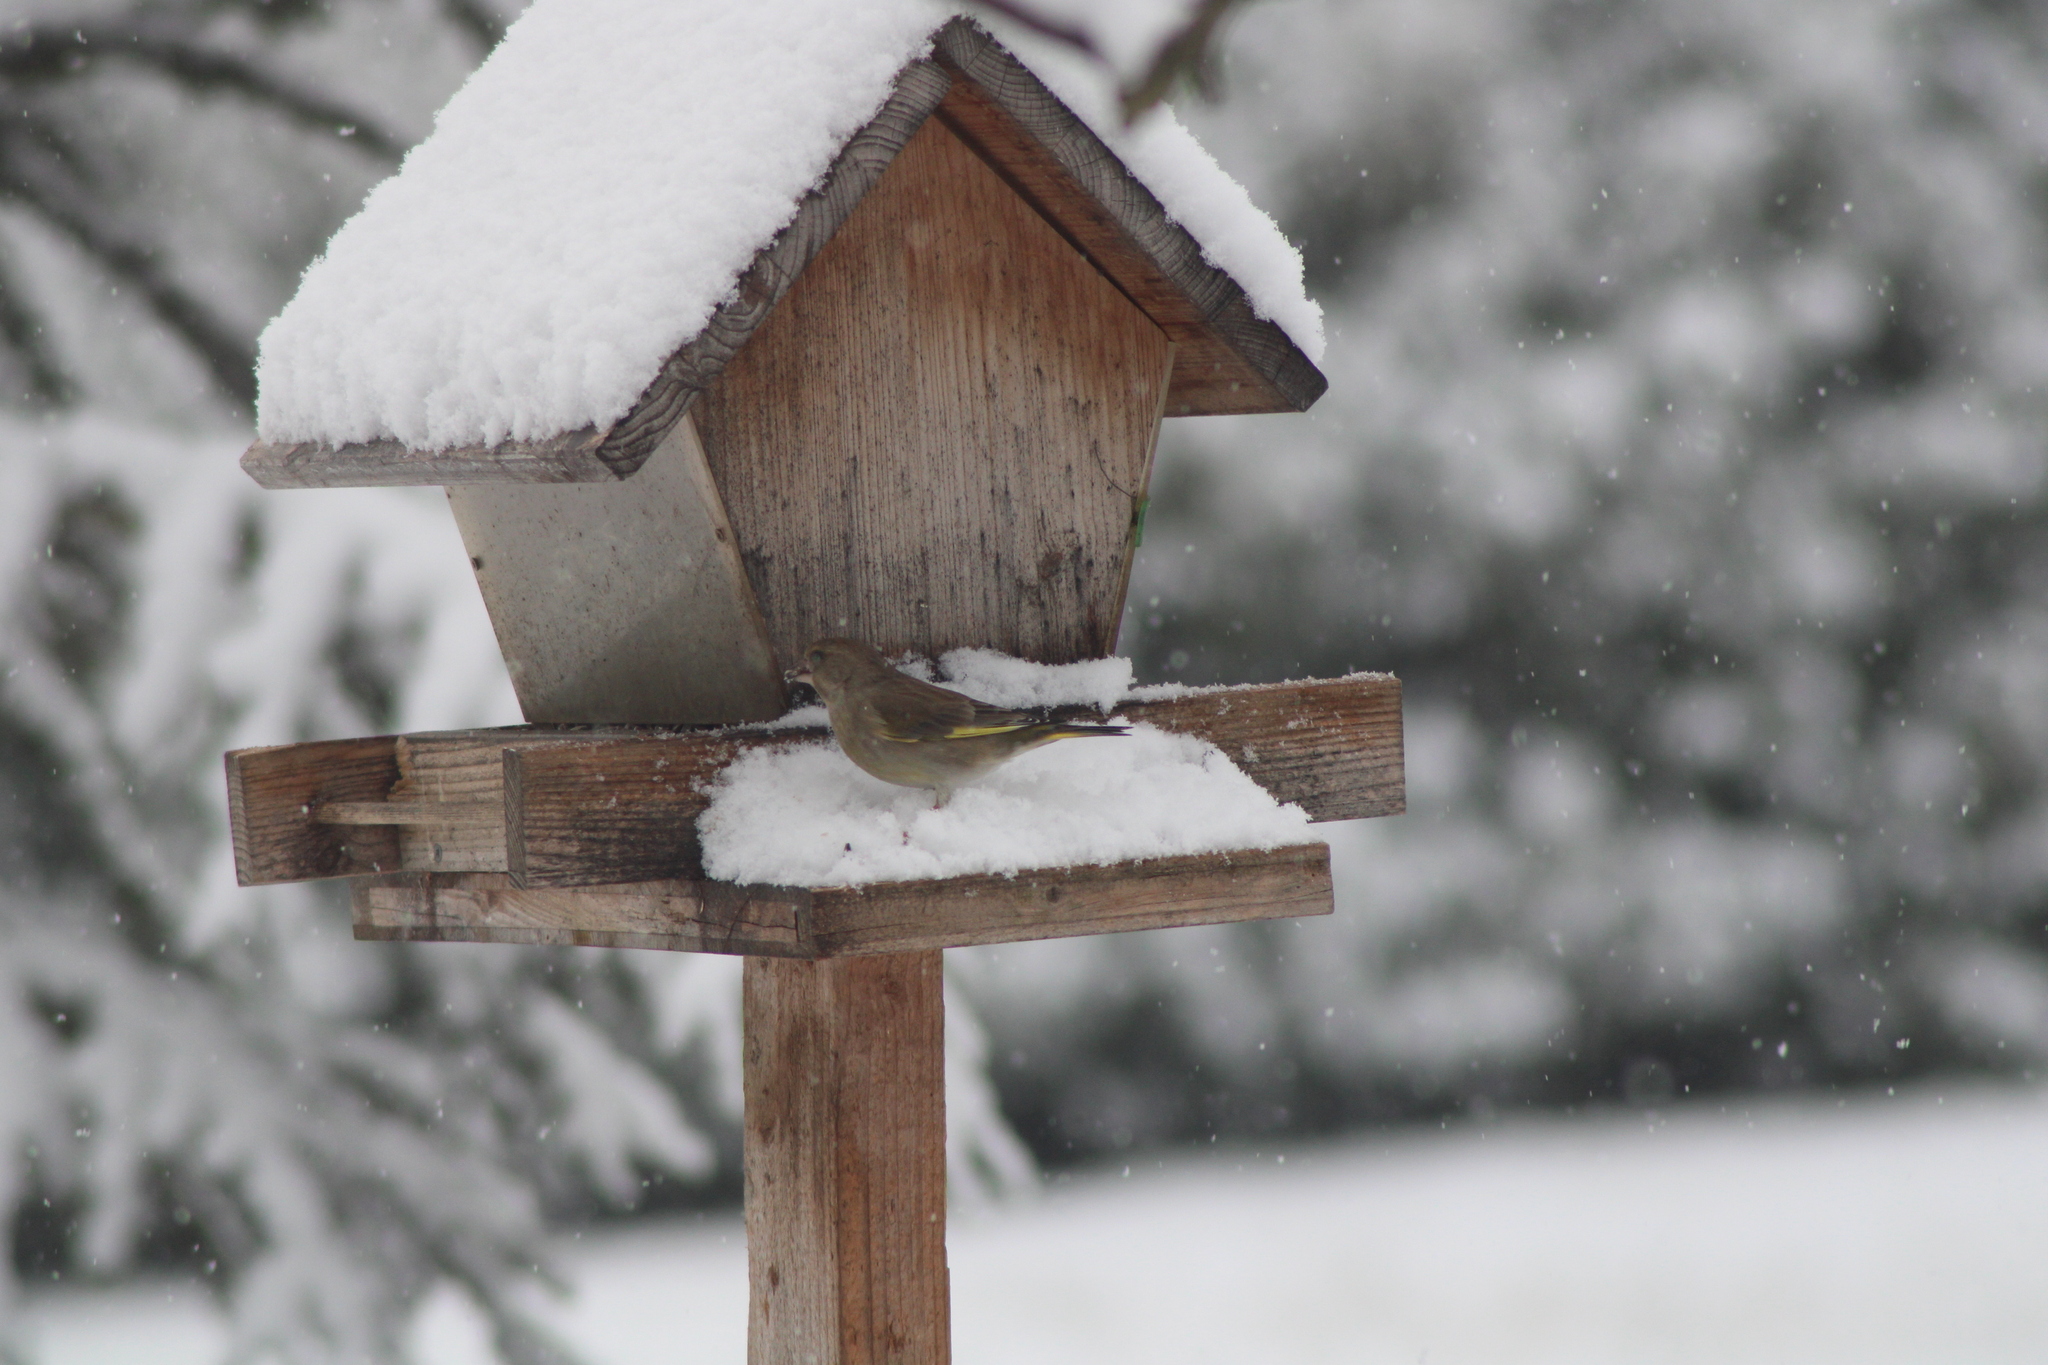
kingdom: Plantae
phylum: Tracheophyta
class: Liliopsida
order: Poales
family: Poaceae
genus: Chloris
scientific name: Chloris chloris
